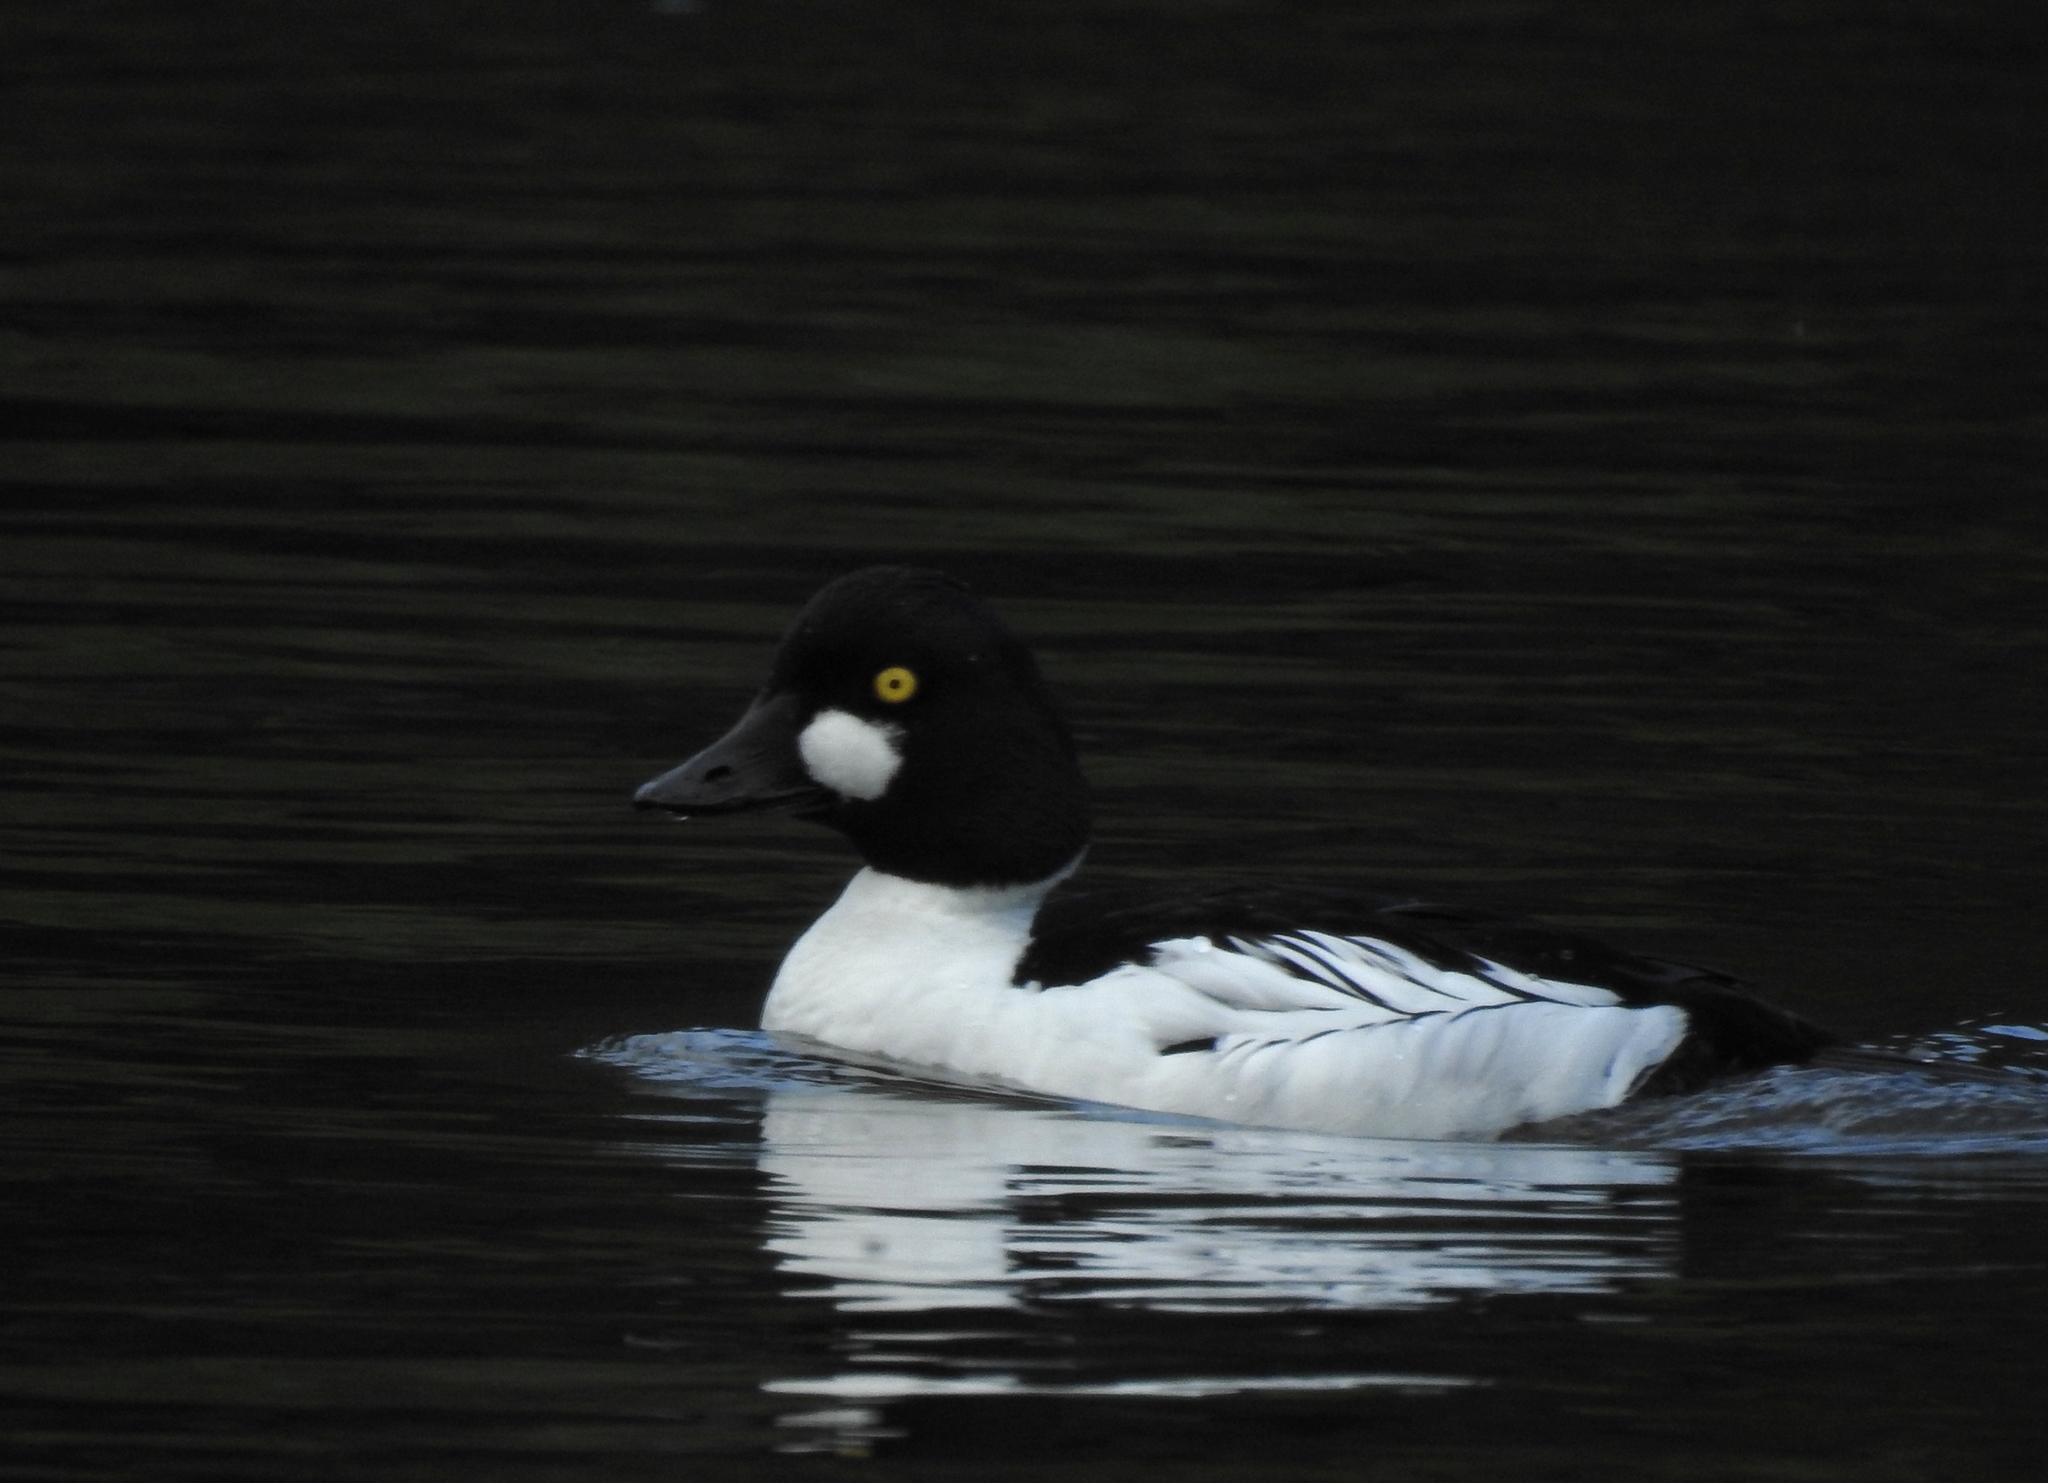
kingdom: Animalia
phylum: Chordata
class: Aves
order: Anseriformes
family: Anatidae
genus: Bucephala
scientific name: Bucephala clangula
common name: Common goldeneye
